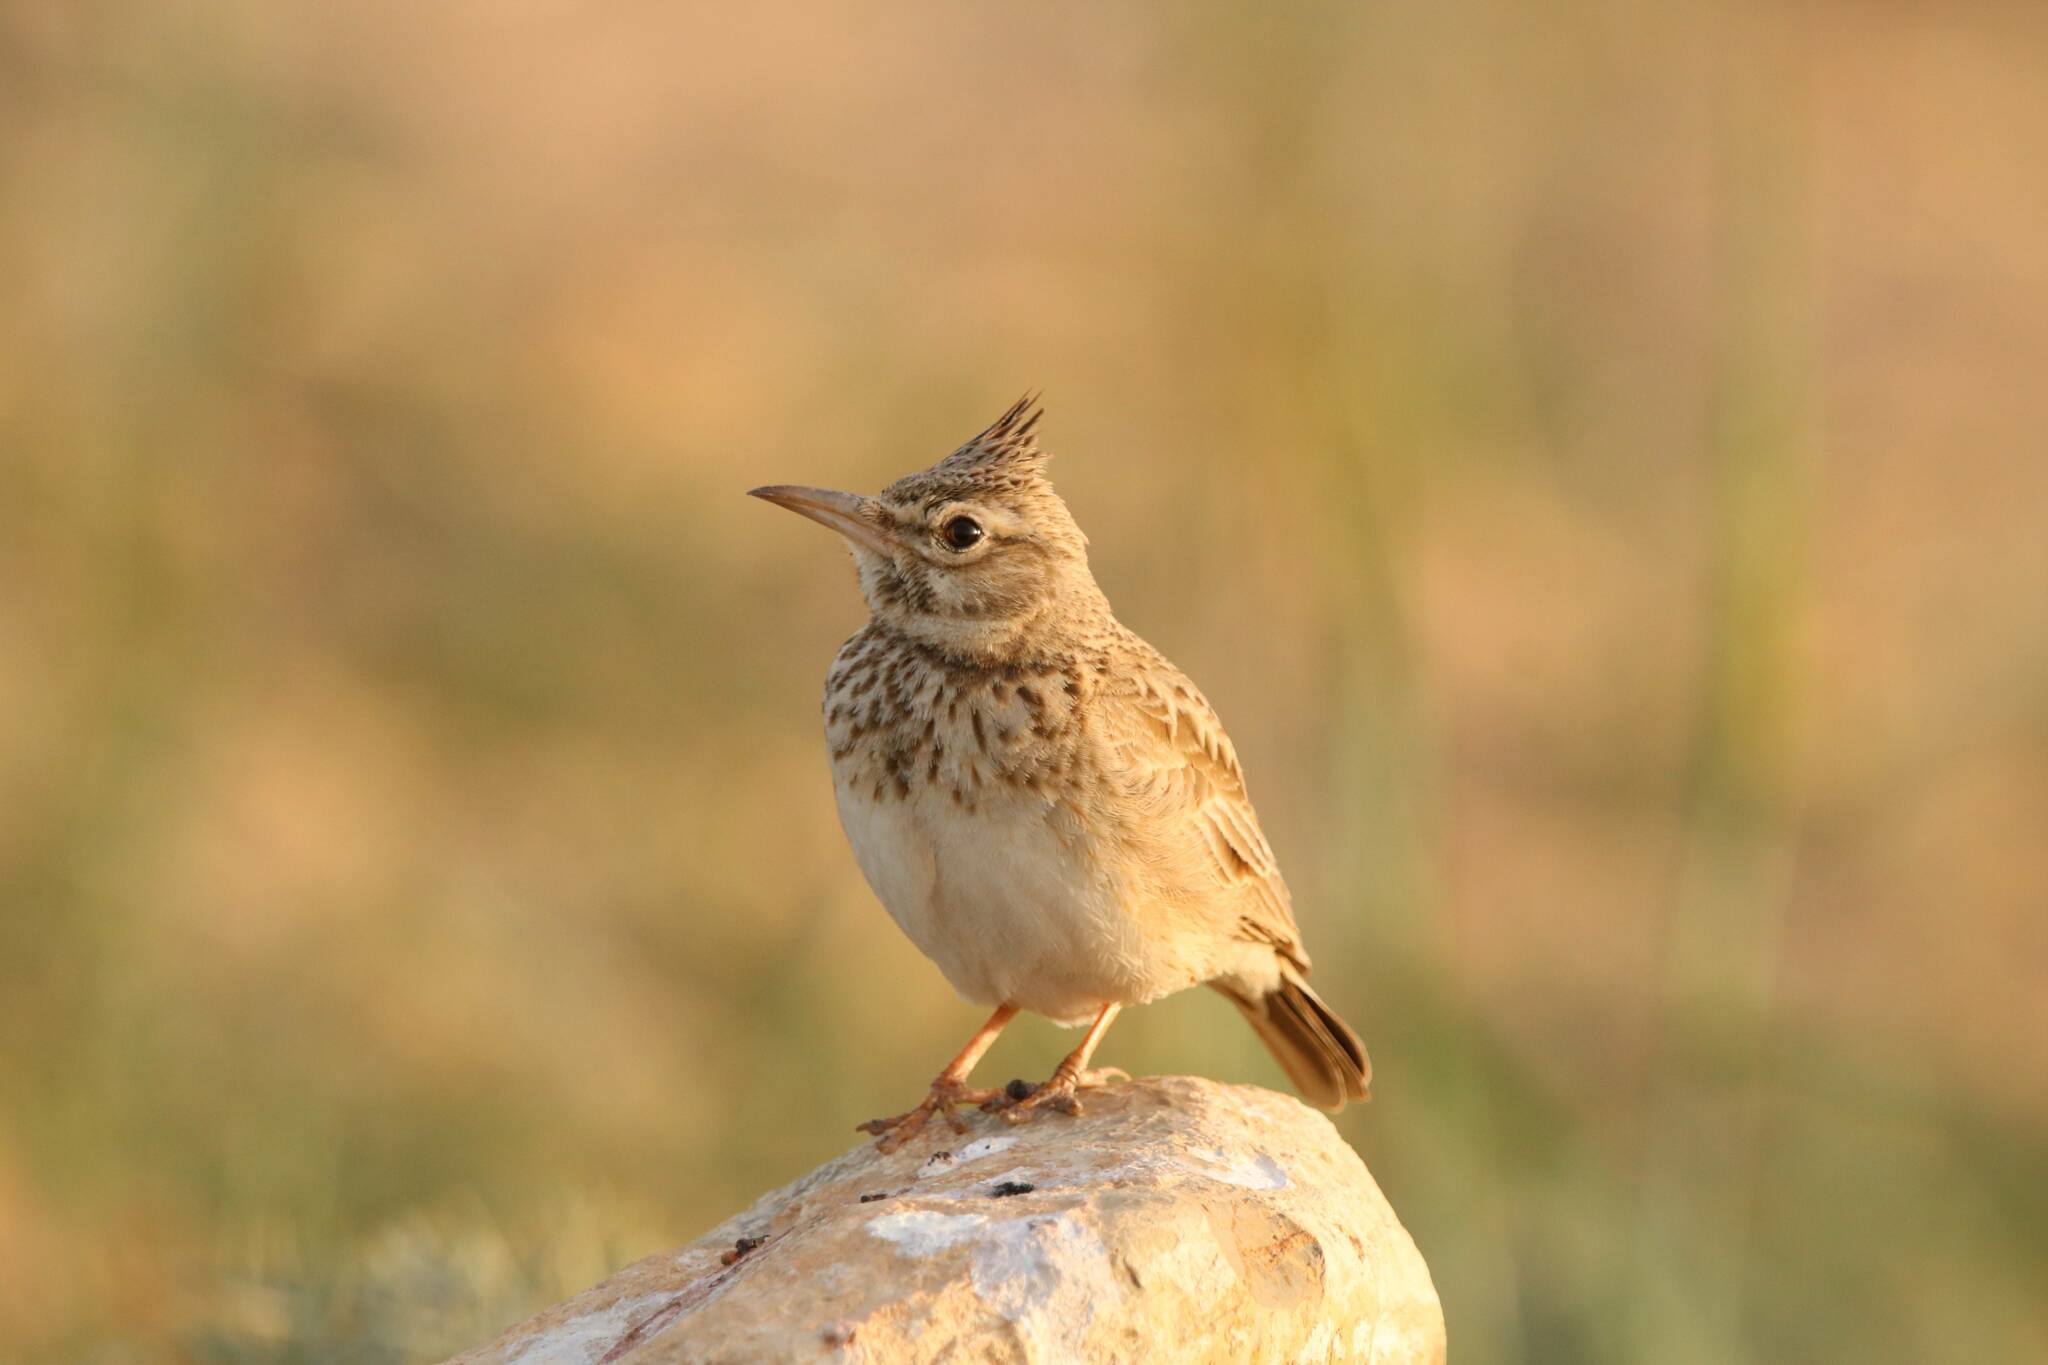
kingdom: Animalia
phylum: Chordata
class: Aves
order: Passeriformes
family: Alaudidae
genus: Galerida
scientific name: Galerida cristata
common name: Crested lark
